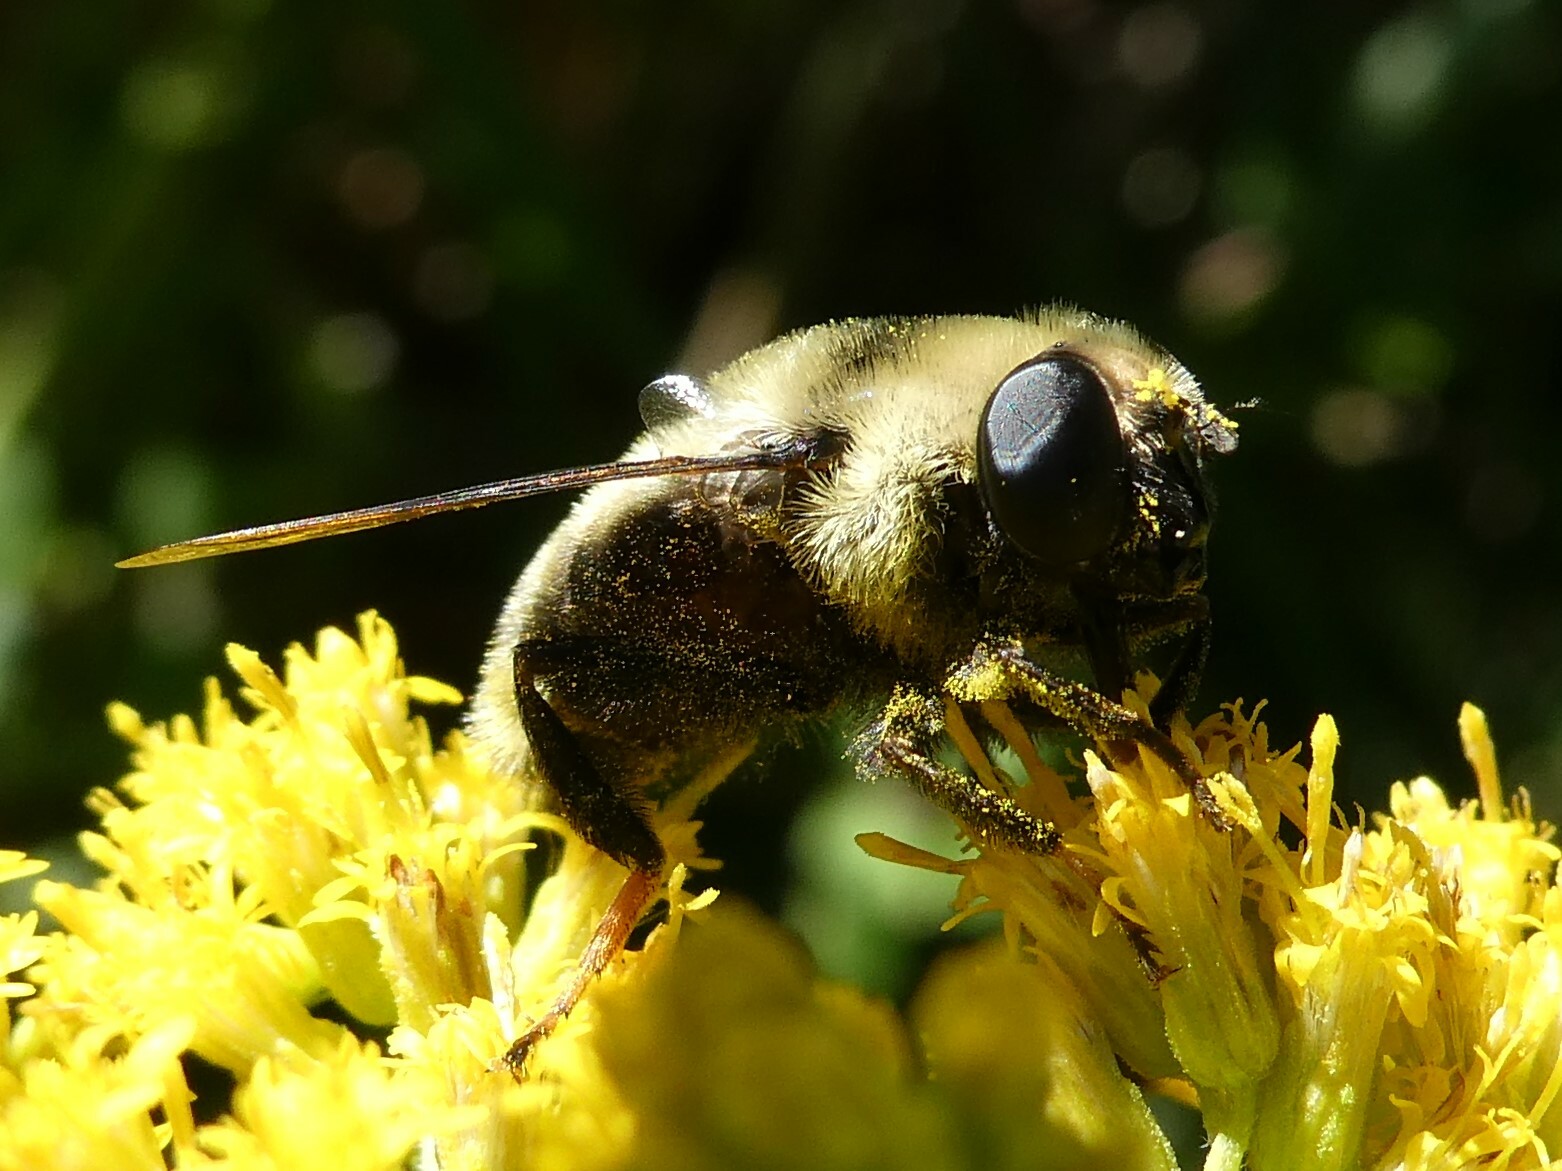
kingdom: Animalia
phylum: Arthropoda
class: Insecta
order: Diptera
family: Syrphidae
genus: Eristalis
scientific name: Eristalis flavipes
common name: Orange-legged drone fly
